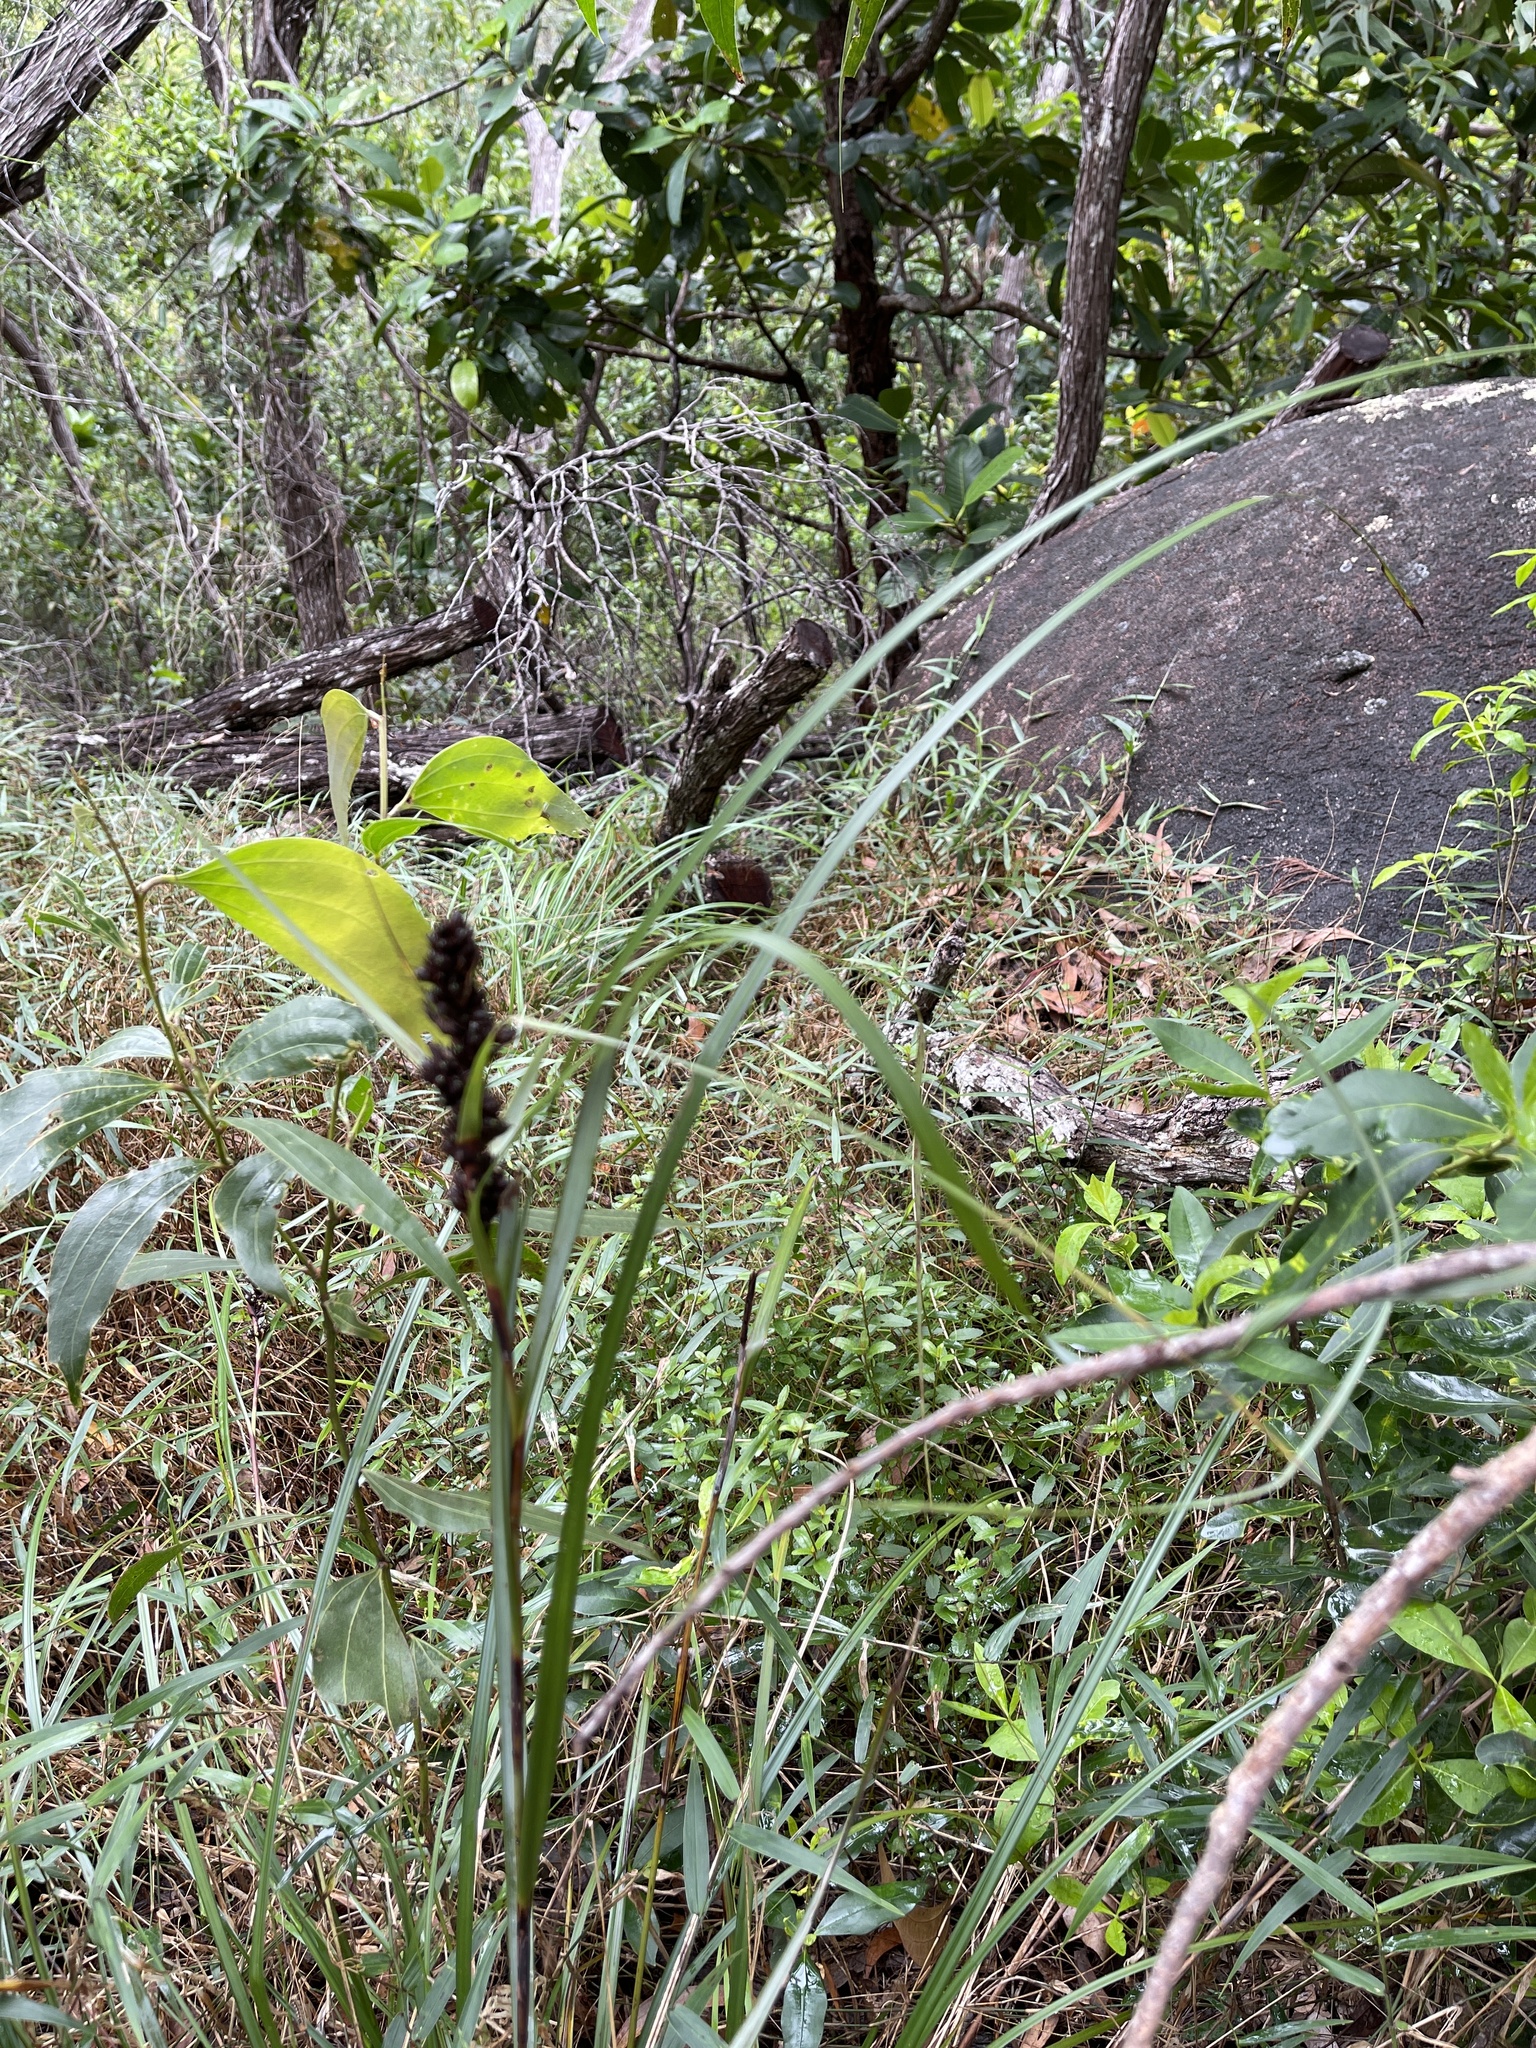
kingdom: Plantae
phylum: Tracheophyta
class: Liliopsida
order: Poales
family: Cyperaceae
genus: Gahnia
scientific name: Gahnia aspera
